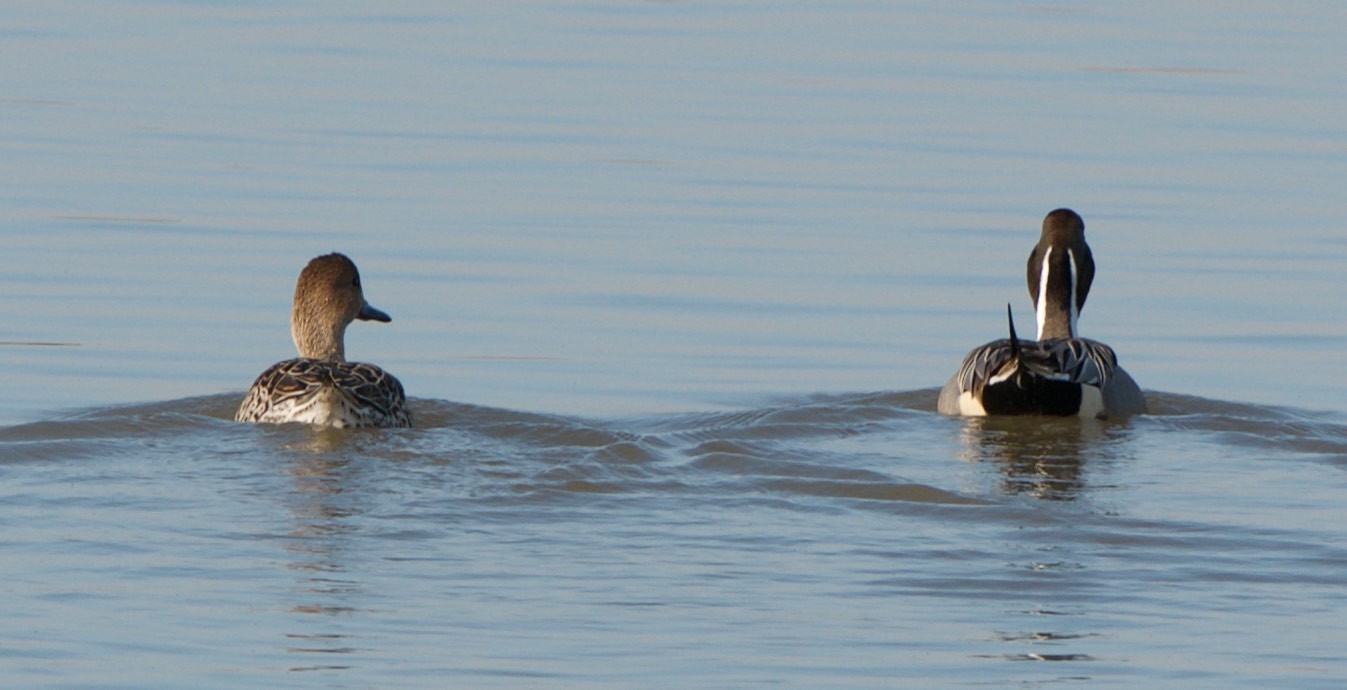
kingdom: Animalia
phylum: Chordata
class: Aves
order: Anseriformes
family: Anatidae
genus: Anas
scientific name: Anas acuta
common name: Northern pintail
